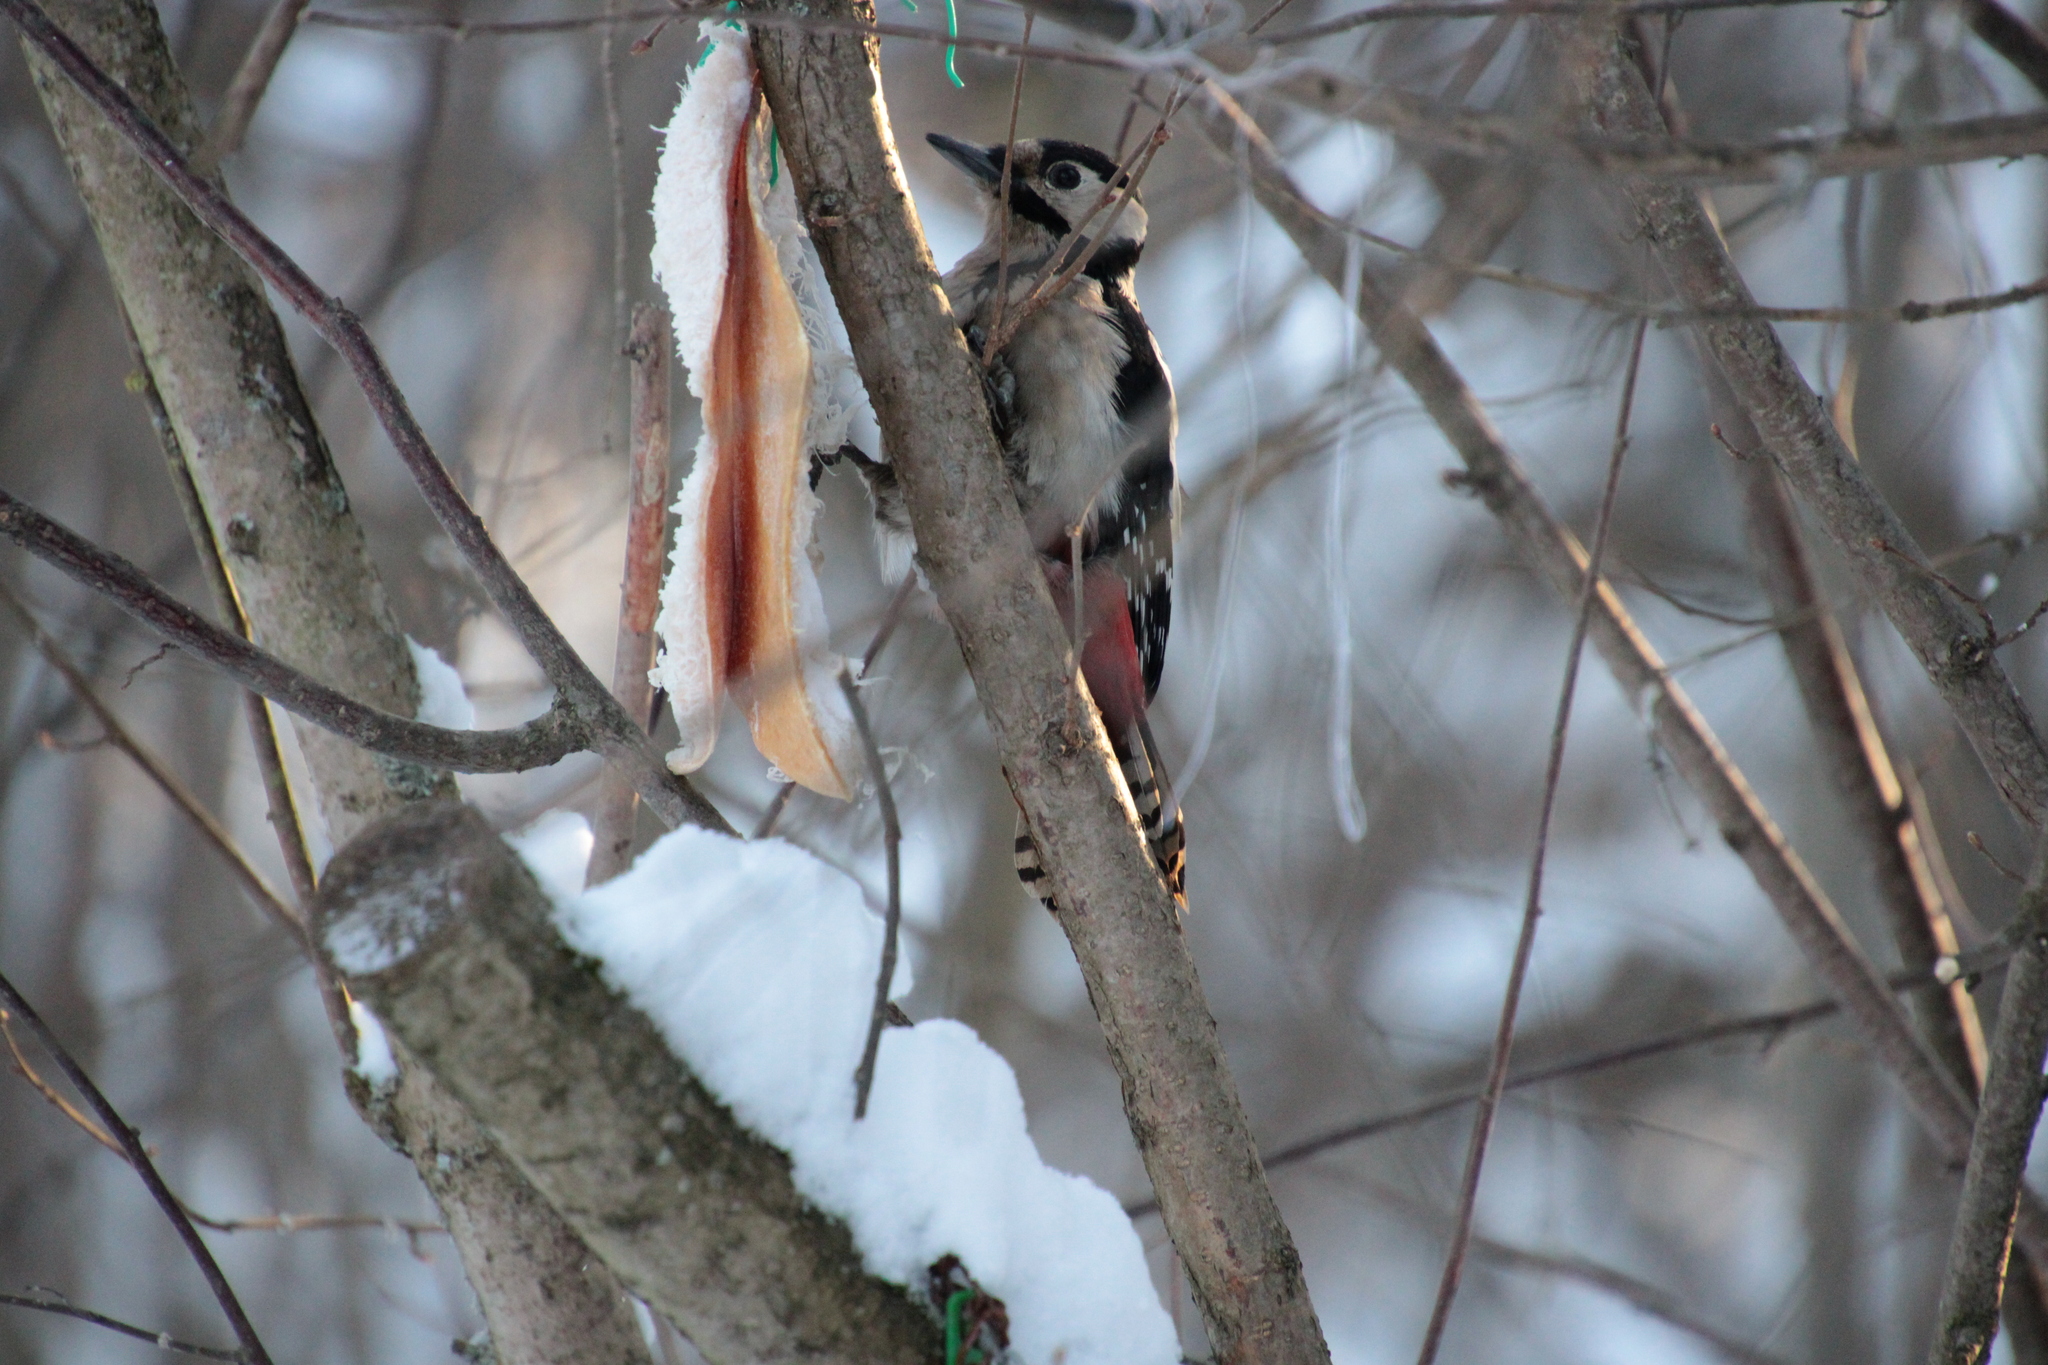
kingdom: Animalia
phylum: Chordata
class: Aves
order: Piciformes
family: Picidae
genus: Dendrocopos
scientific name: Dendrocopos major
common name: Great spotted woodpecker
